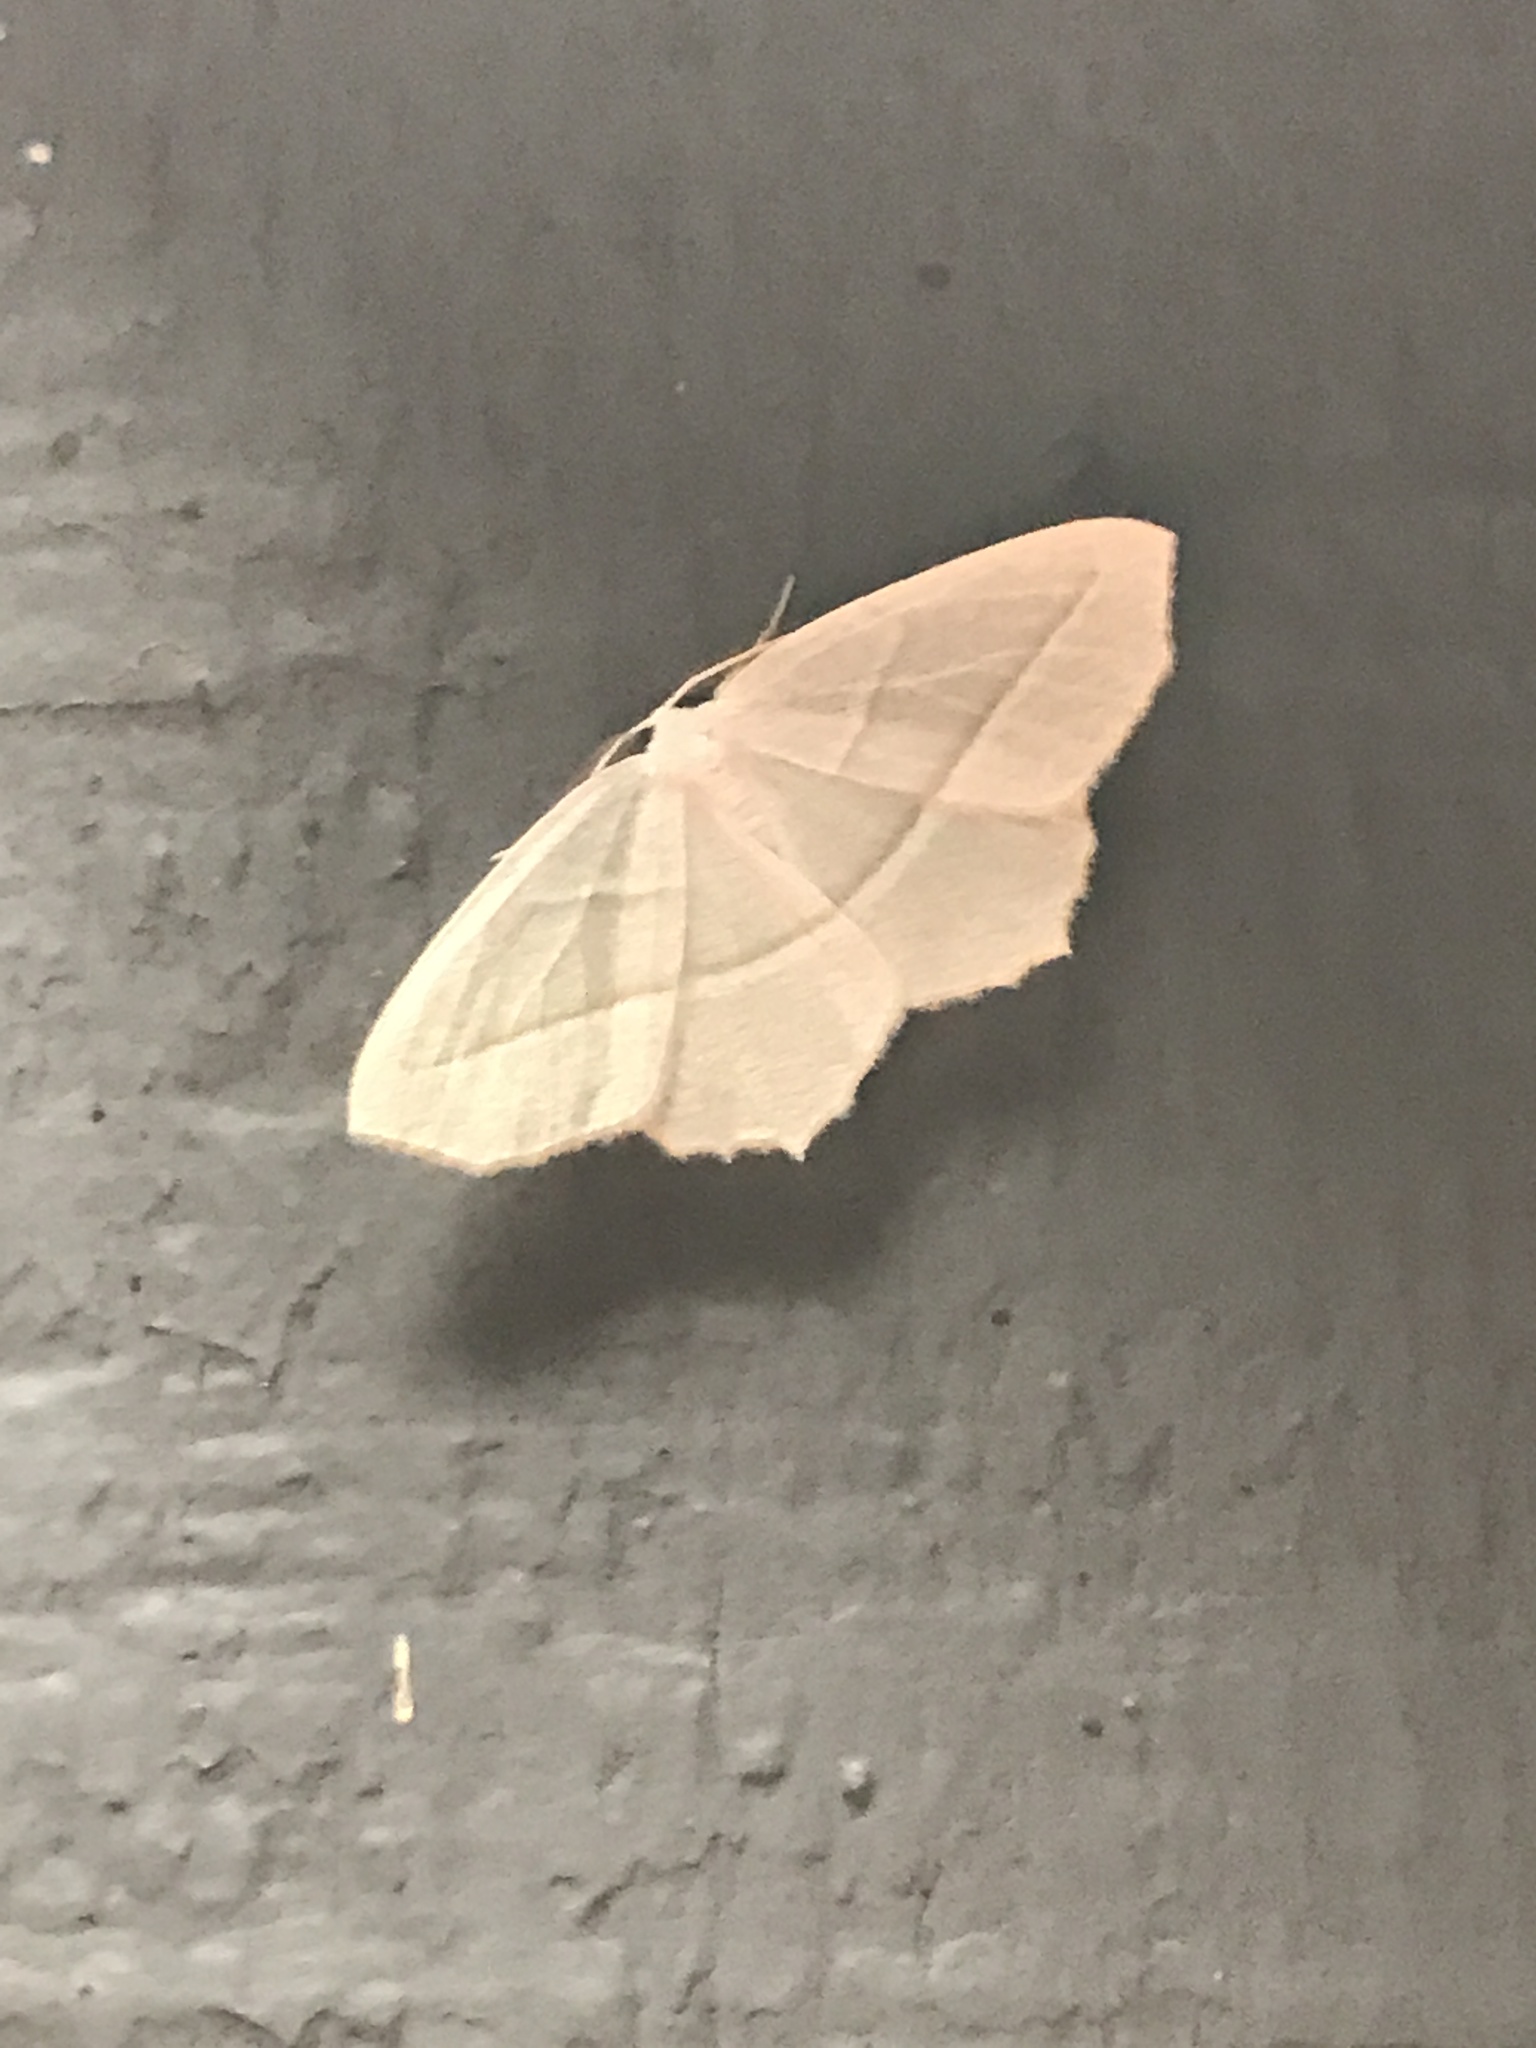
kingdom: Animalia
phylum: Arthropoda
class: Insecta
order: Lepidoptera
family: Geometridae
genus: Campaea
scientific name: Campaea perlata
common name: Fringed looper
